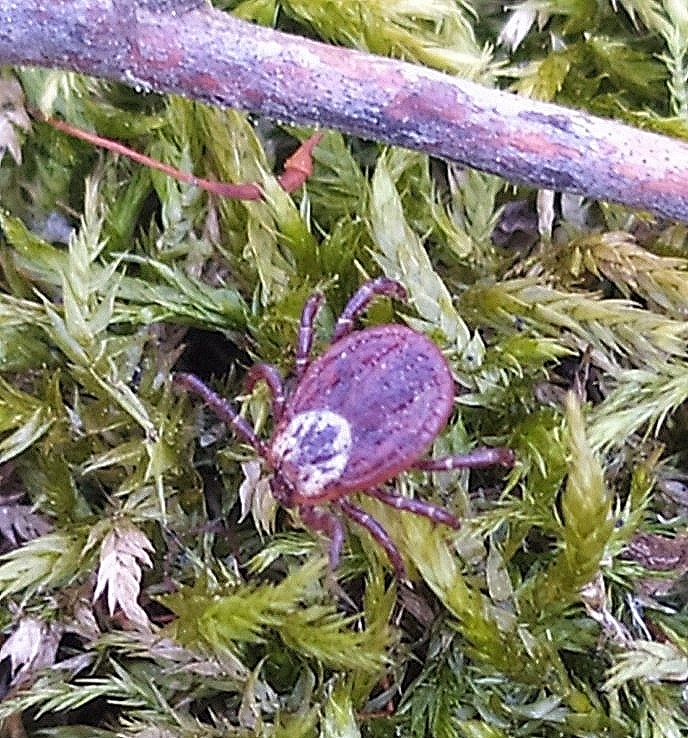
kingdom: Animalia
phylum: Arthropoda
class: Arachnida
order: Ixodida
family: Ixodidae
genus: Dermacentor
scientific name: Dermacentor reticulatus
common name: Ornate cow tick
